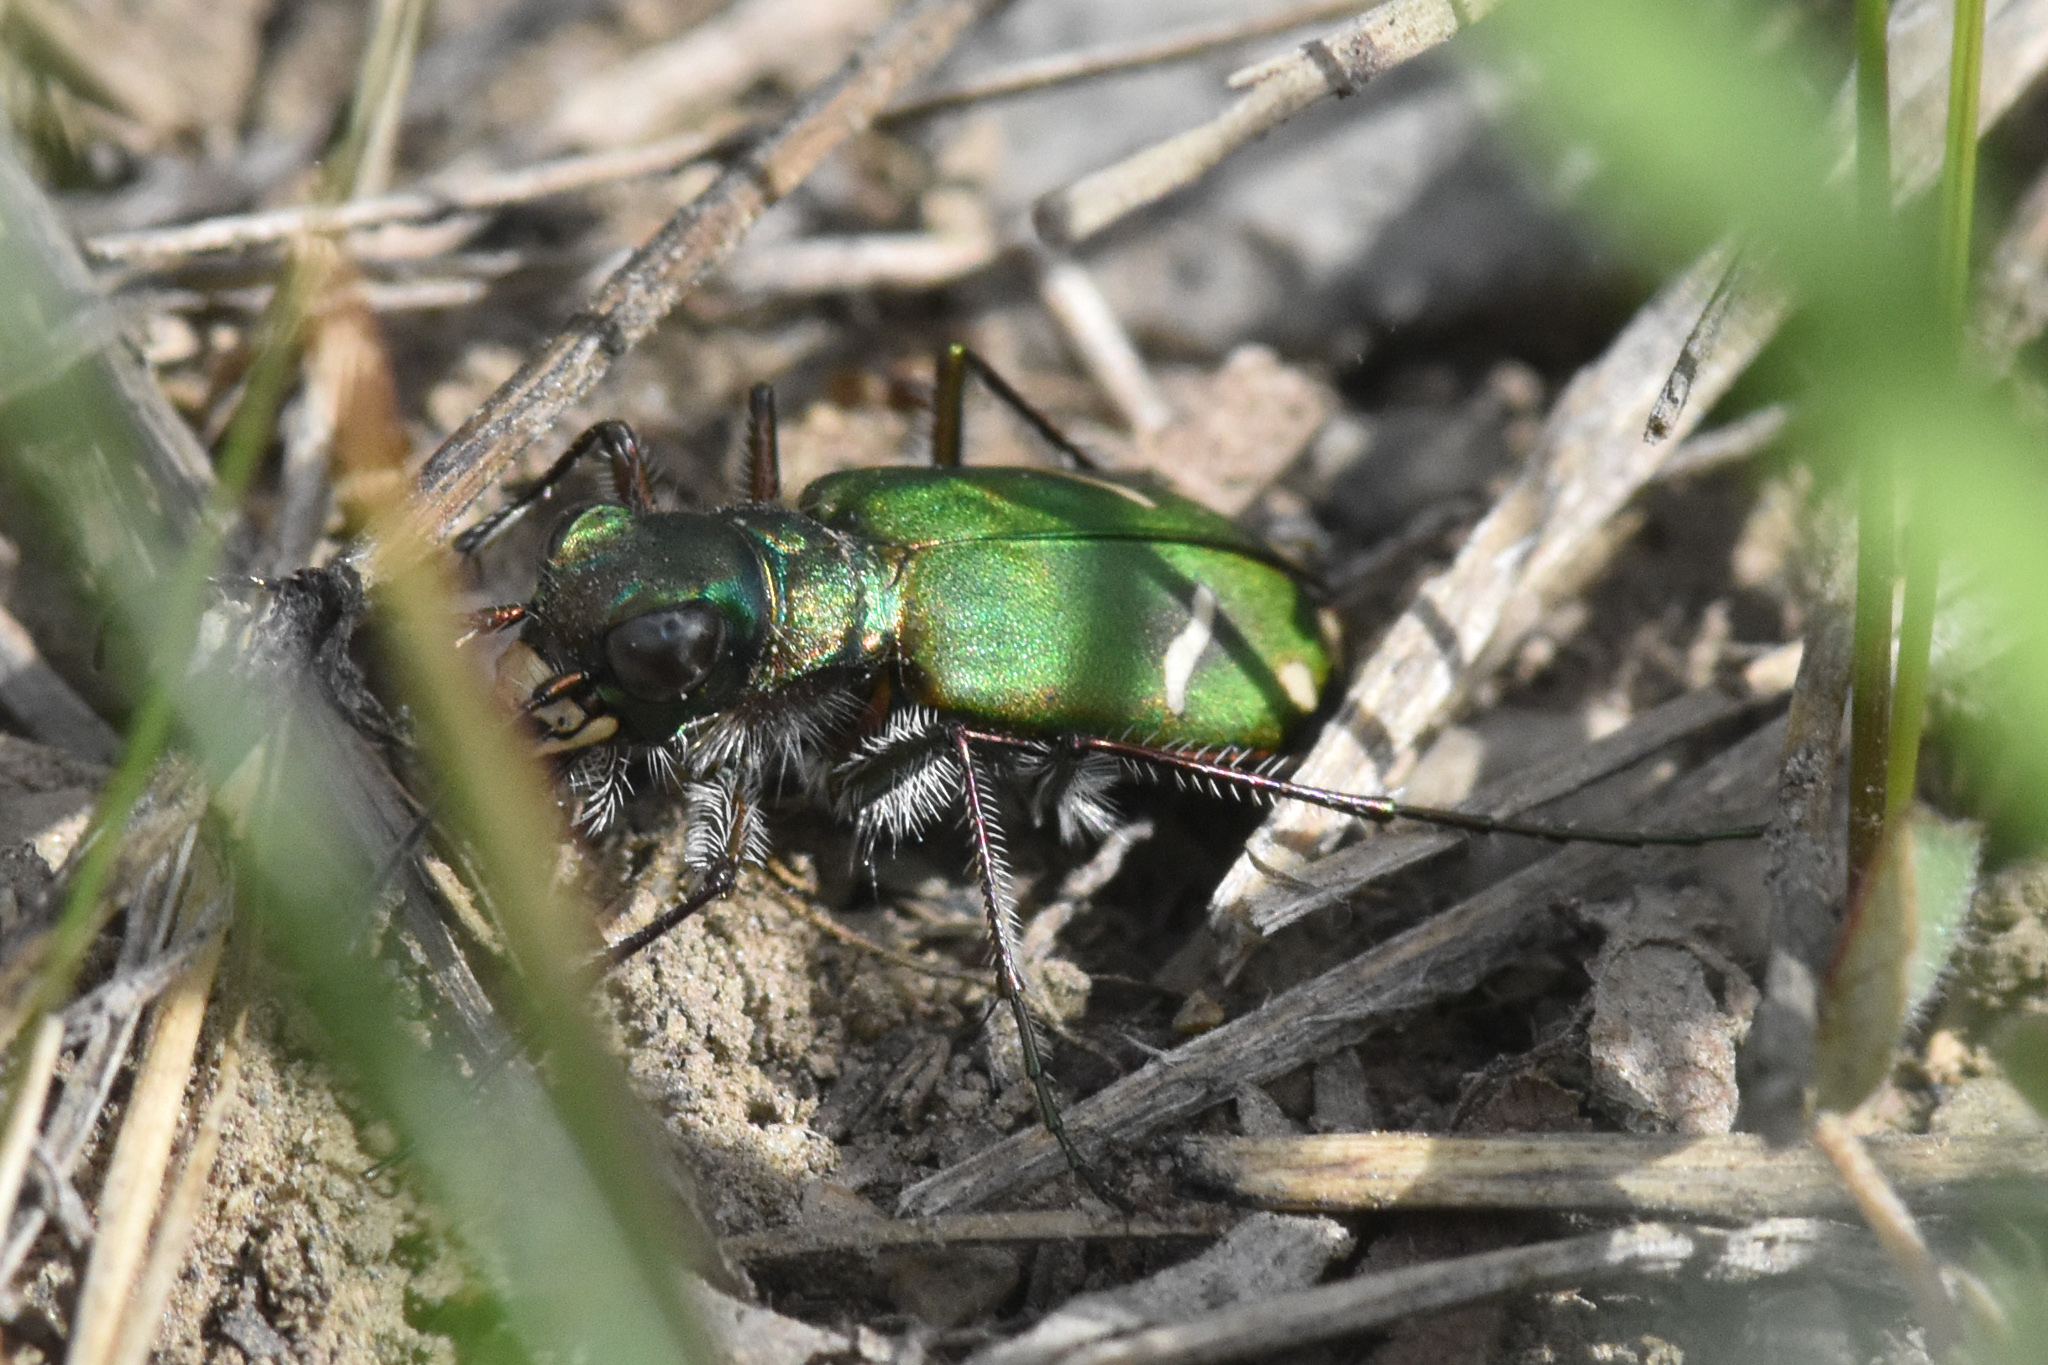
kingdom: Animalia
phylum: Arthropoda
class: Insecta
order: Coleoptera
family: Carabidae
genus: Cicindela
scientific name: Cicindela purpurea
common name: Cow path tiger beetle
